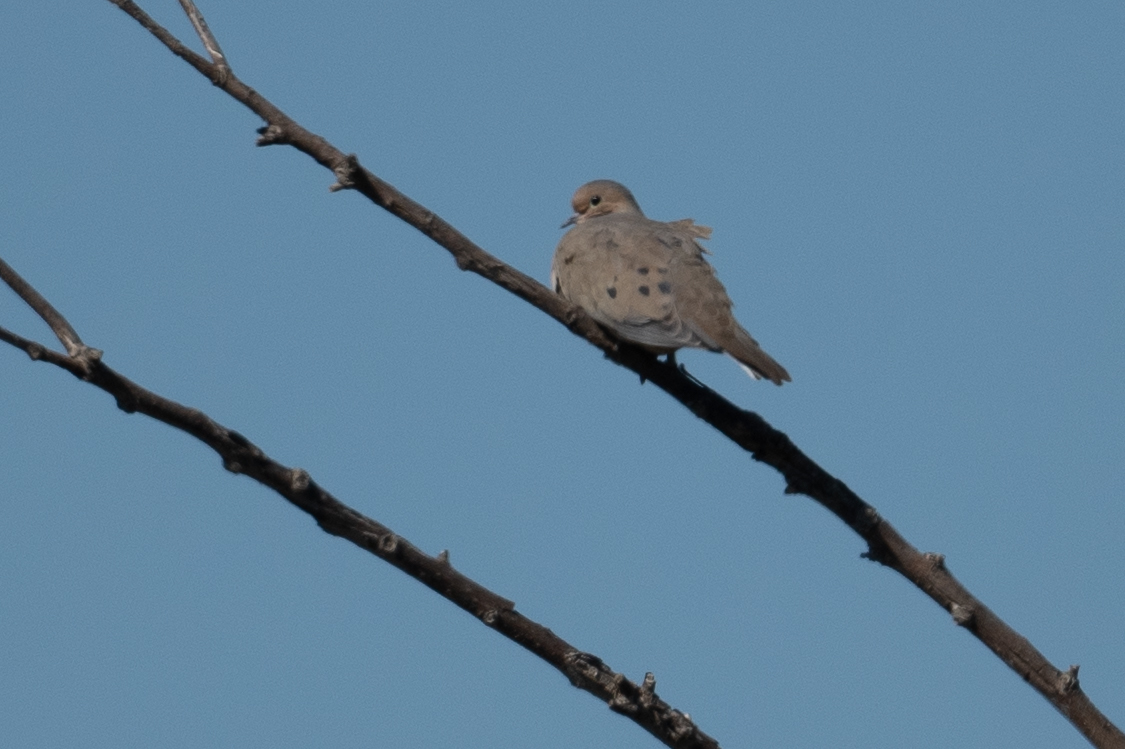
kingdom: Animalia
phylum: Chordata
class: Aves
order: Columbiformes
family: Columbidae
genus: Zenaida
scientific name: Zenaida macroura
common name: Mourning dove
